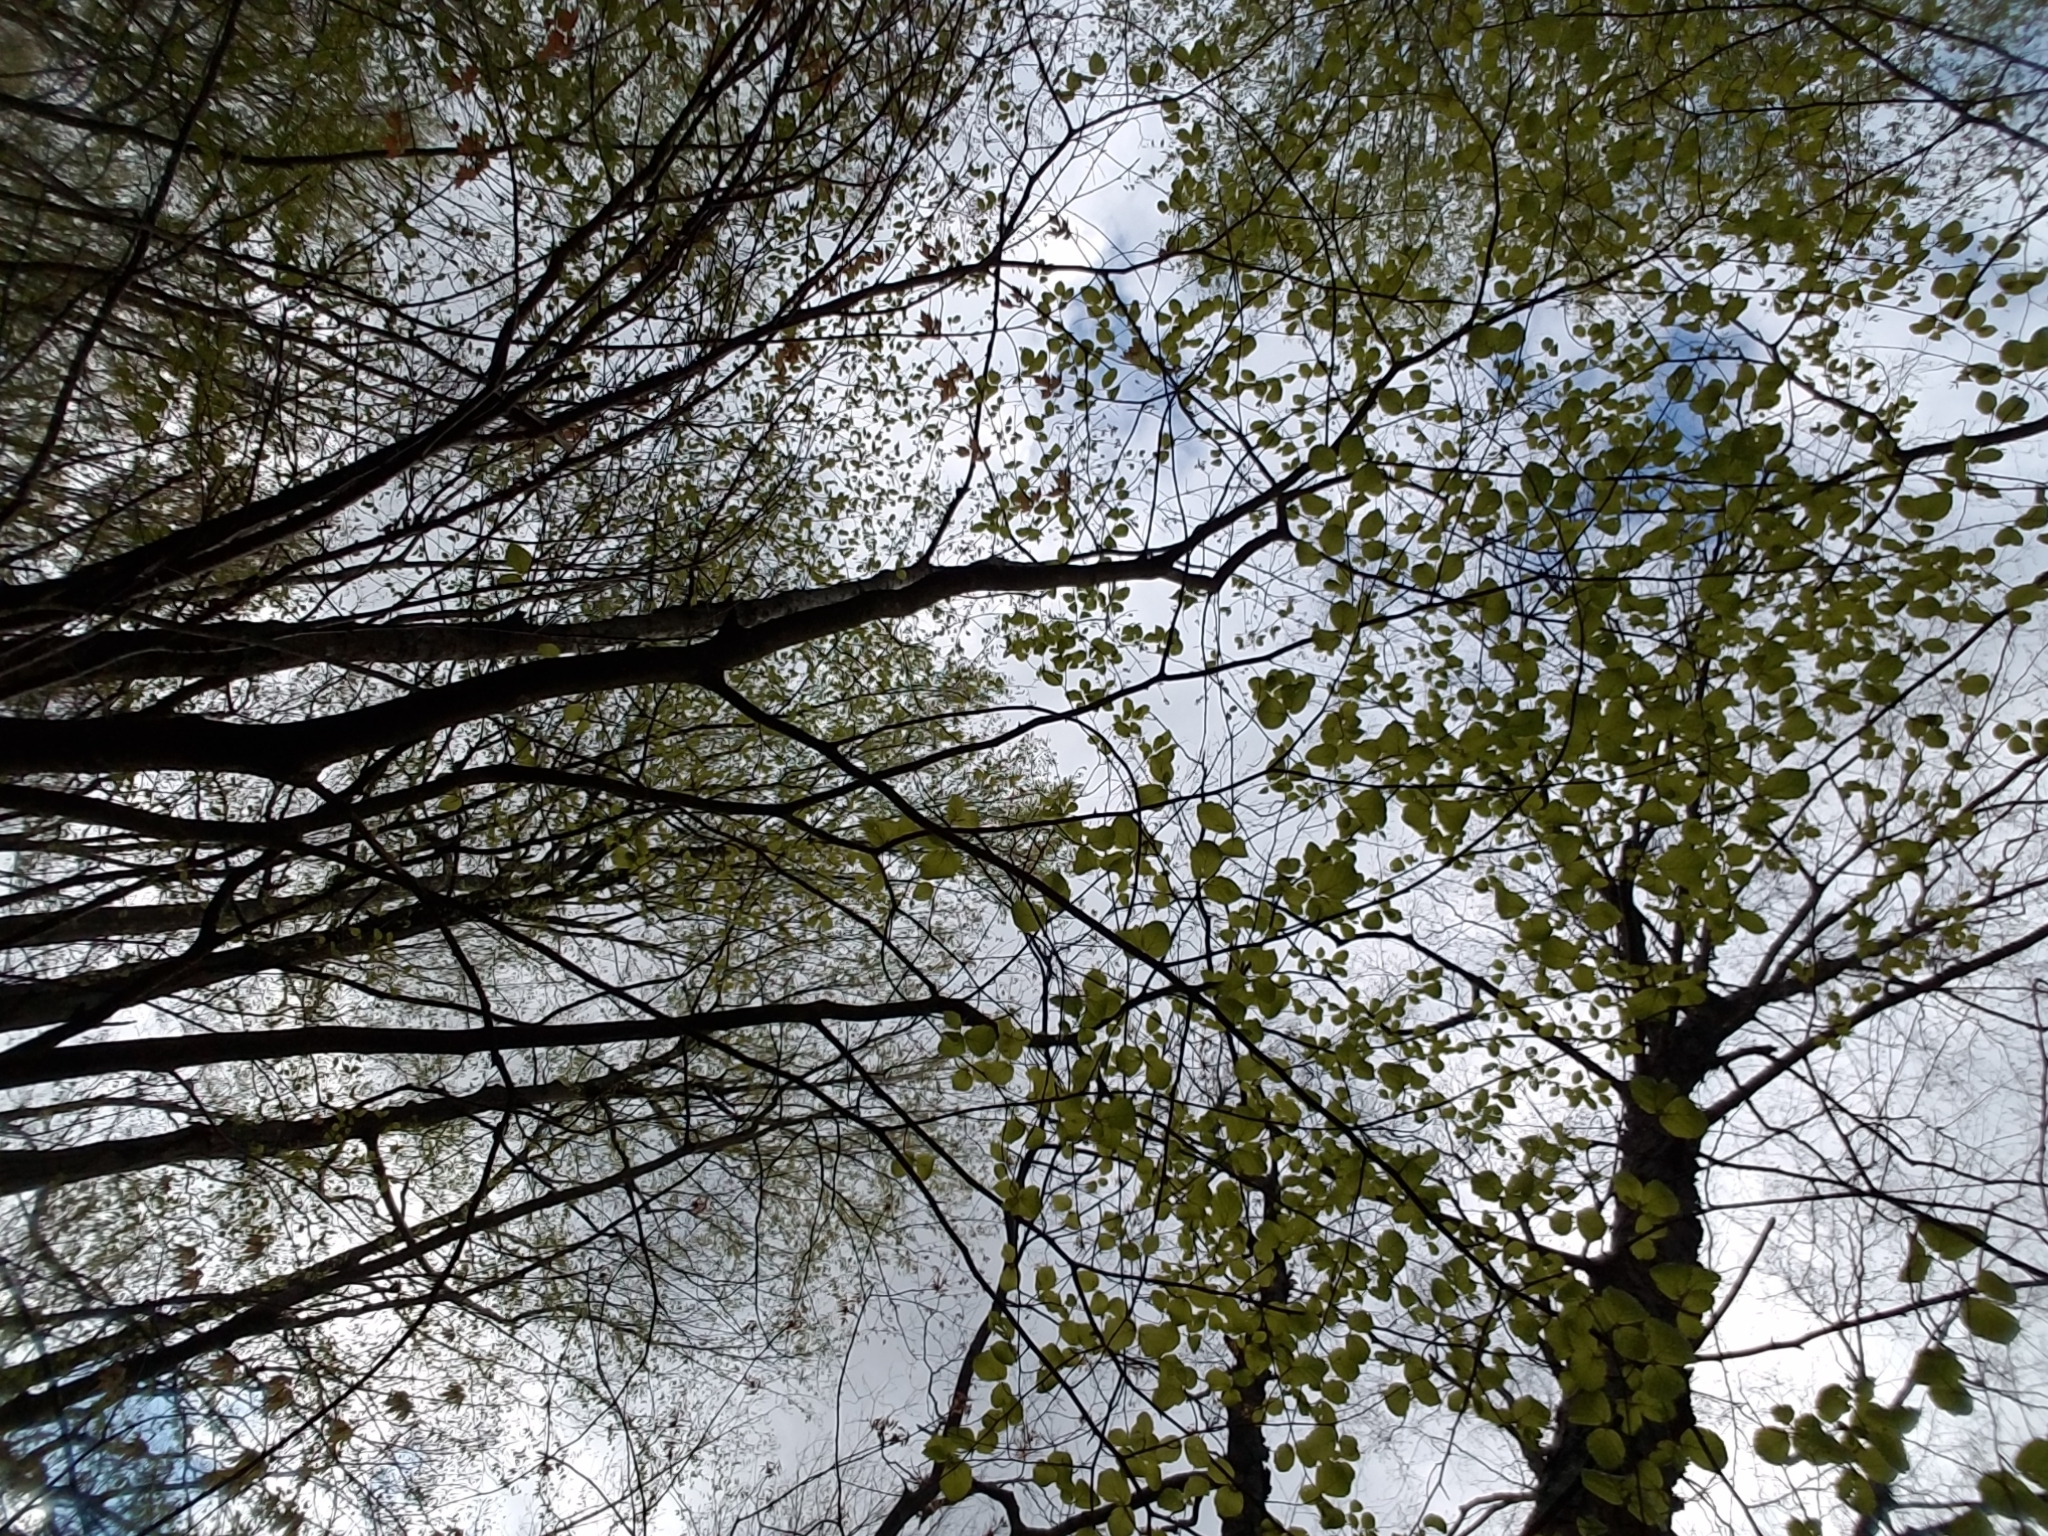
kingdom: Plantae
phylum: Tracheophyta
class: Magnoliopsida
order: Saxifragales
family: Hamamelidaceae
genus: Hamamelis
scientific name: Hamamelis virginiana
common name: Witch-hazel
